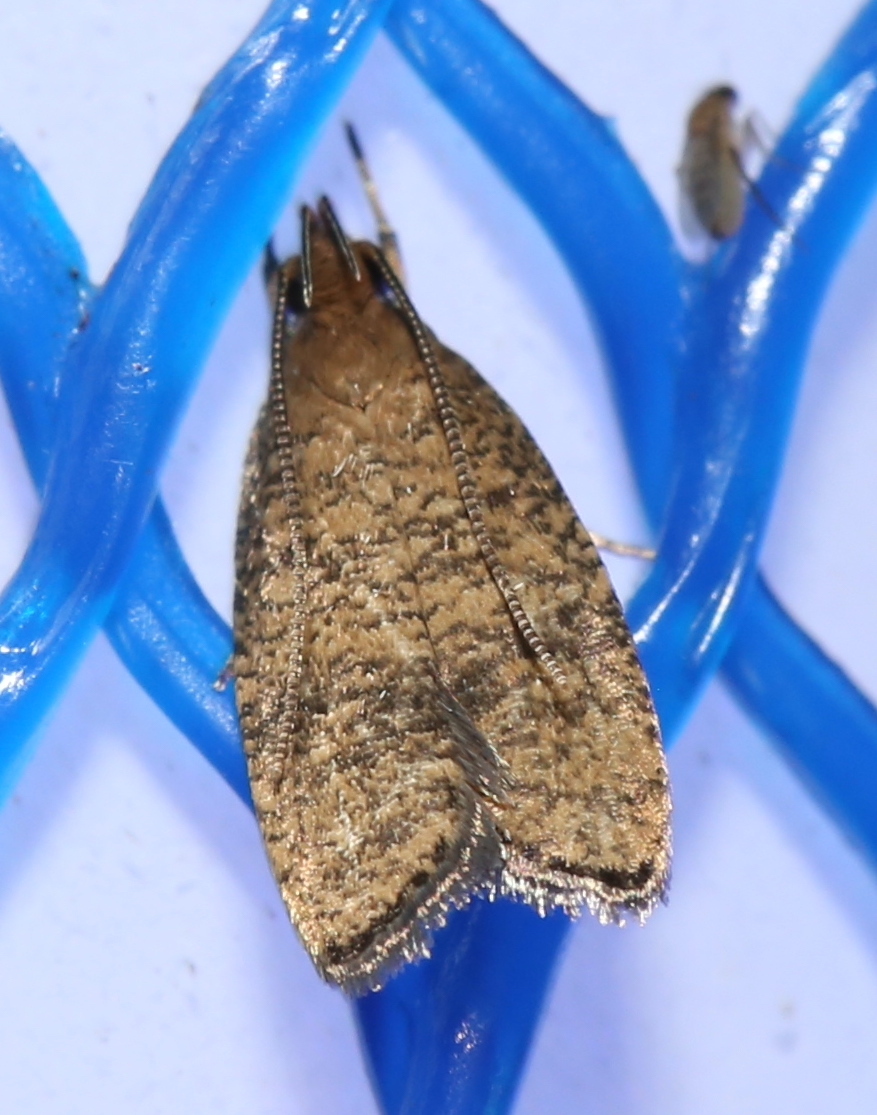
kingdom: Animalia
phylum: Arthropoda
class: Insecta
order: Lepidoptera
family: Depressariidae
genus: Psilocorsis
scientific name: Psilocorsis quercicella
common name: Oak leaftier moth
